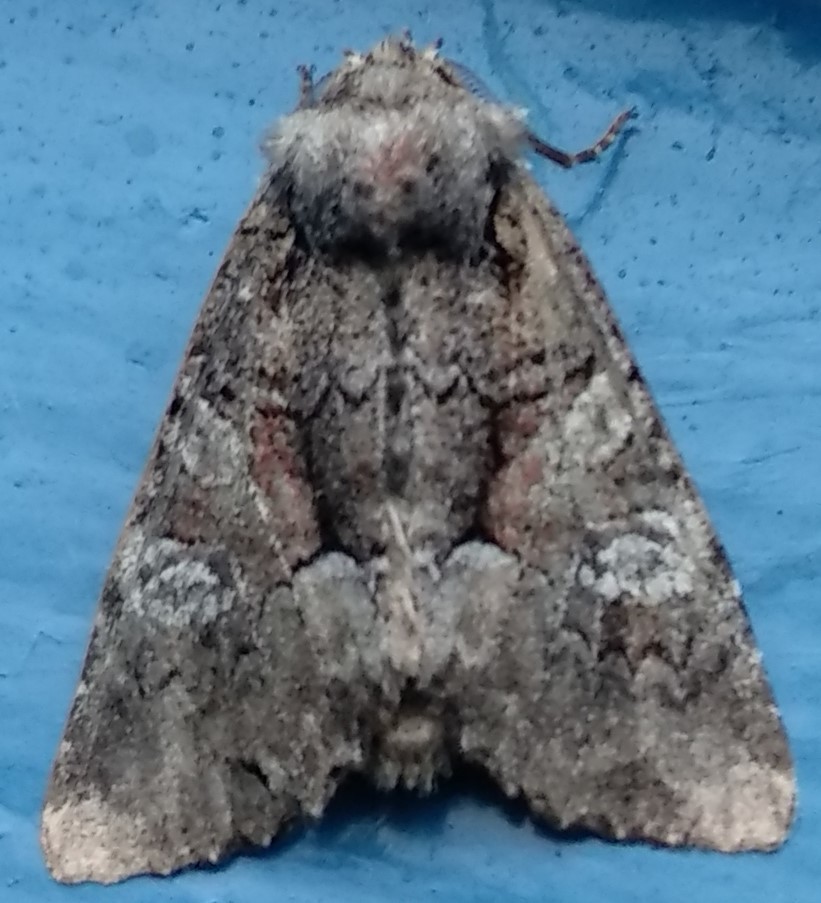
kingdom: Animalia
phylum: Arthropoda
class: Insecta
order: Lepidoptera
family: Noctuidae
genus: Fishia
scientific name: Fishia illocata
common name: Wandering brocade moth
